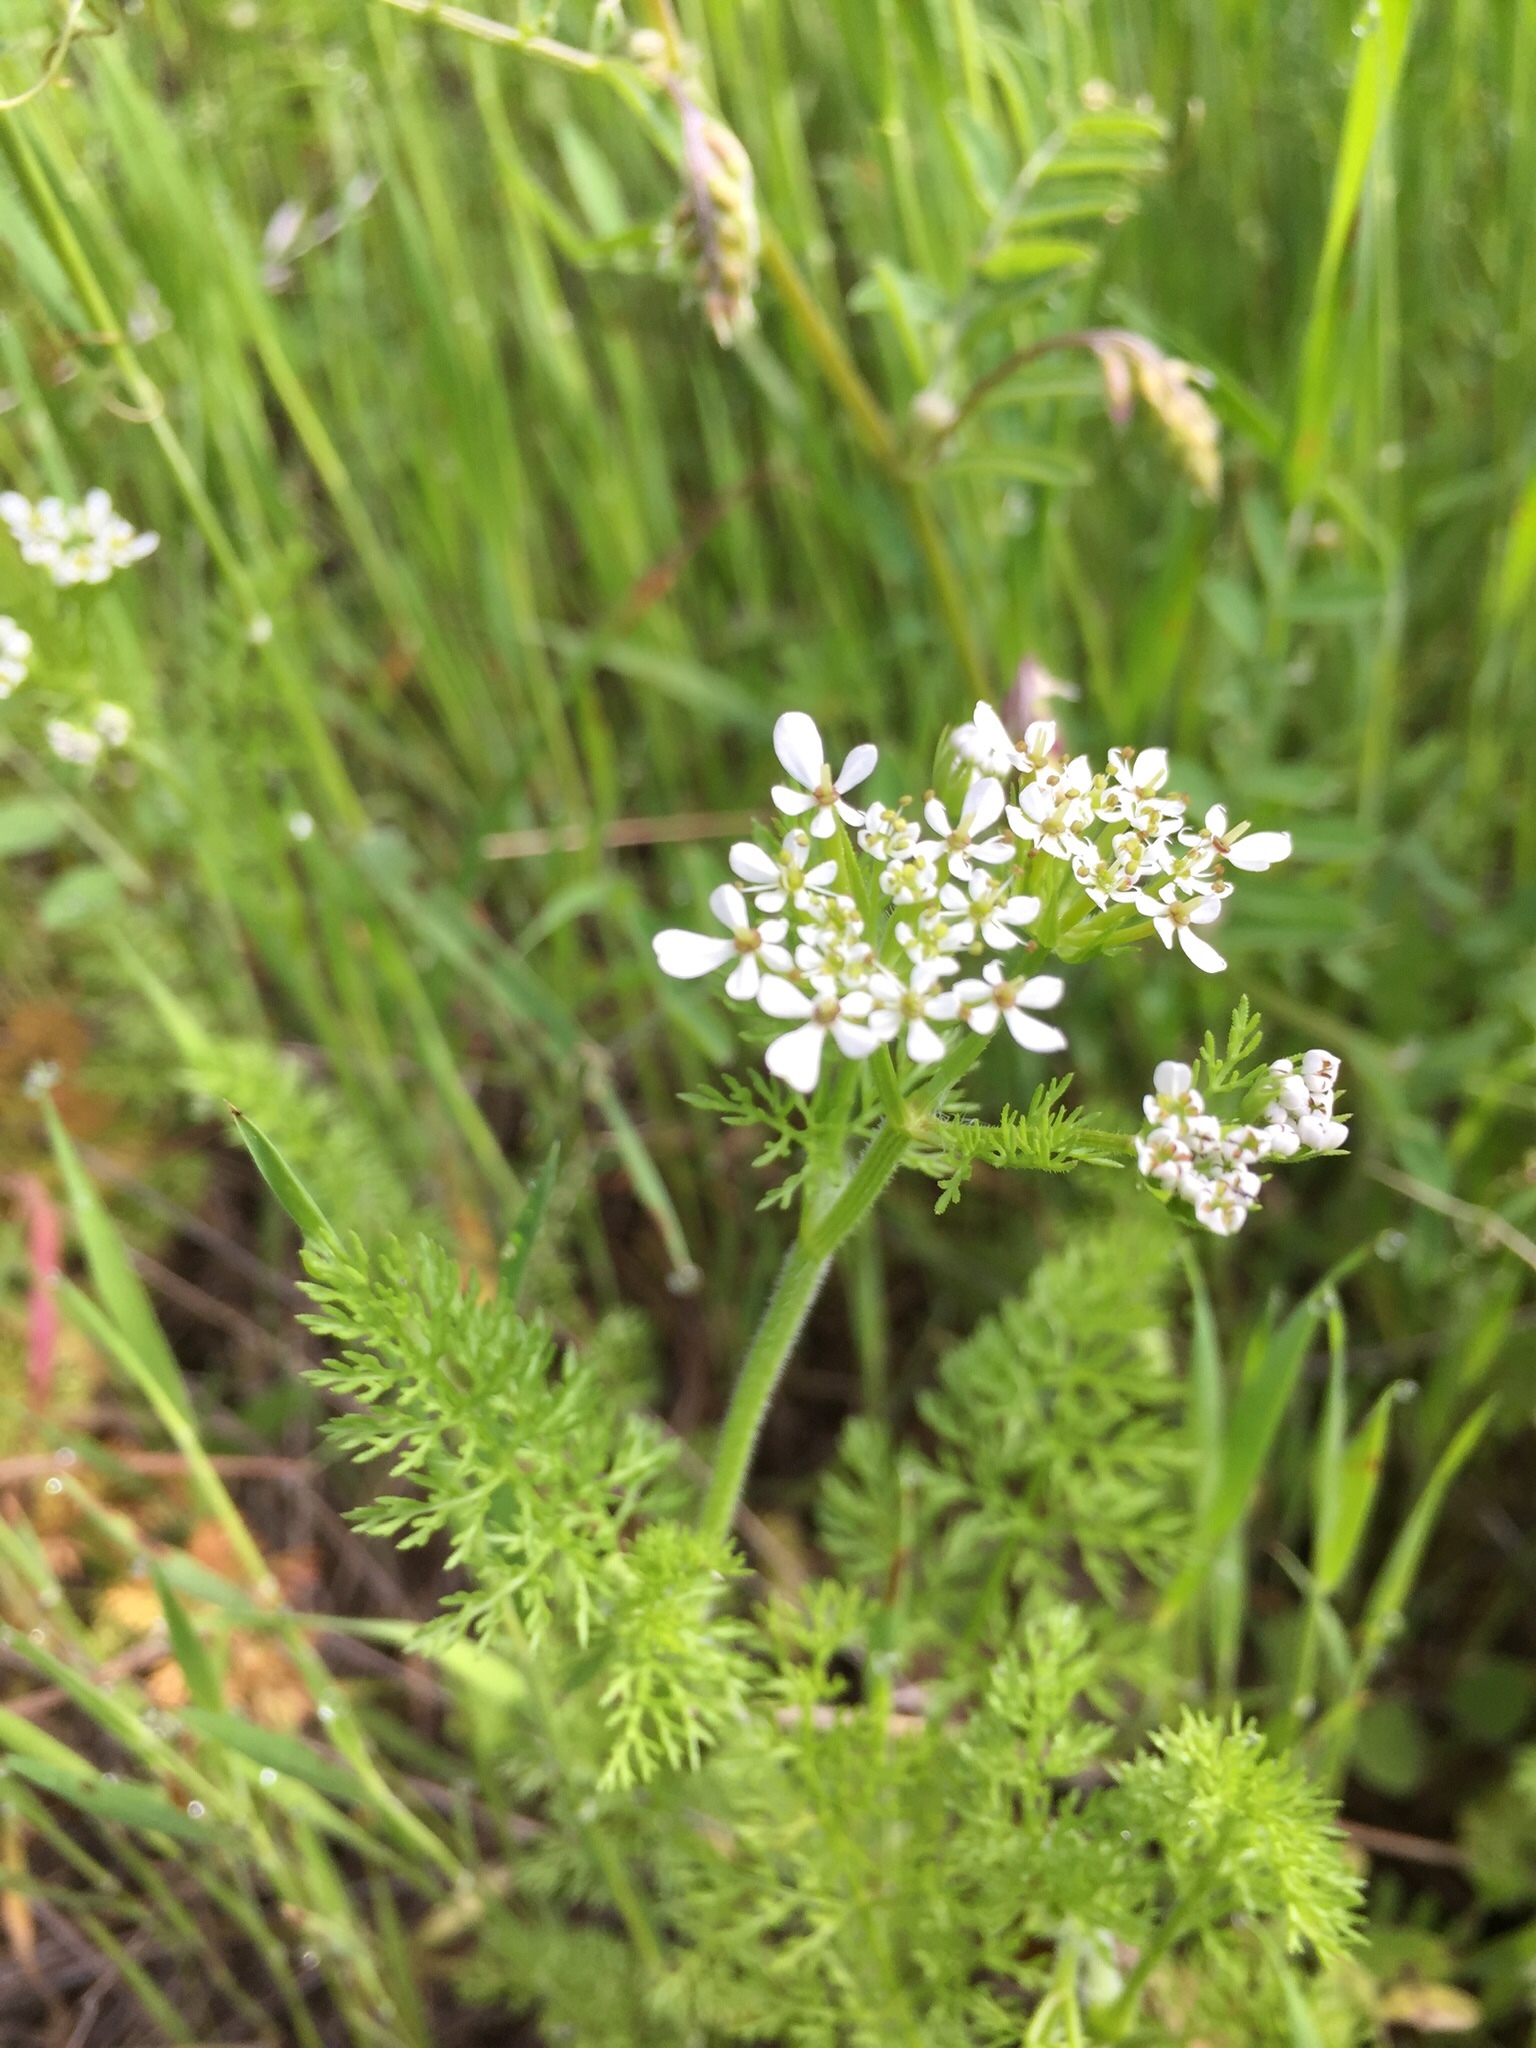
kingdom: Plantae
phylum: Tracheophyta
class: Magnoliopsida
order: Apiales
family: Apiaceae
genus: Scandix
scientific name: Scandix pecten-veneris
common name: Shepherd's-needle
